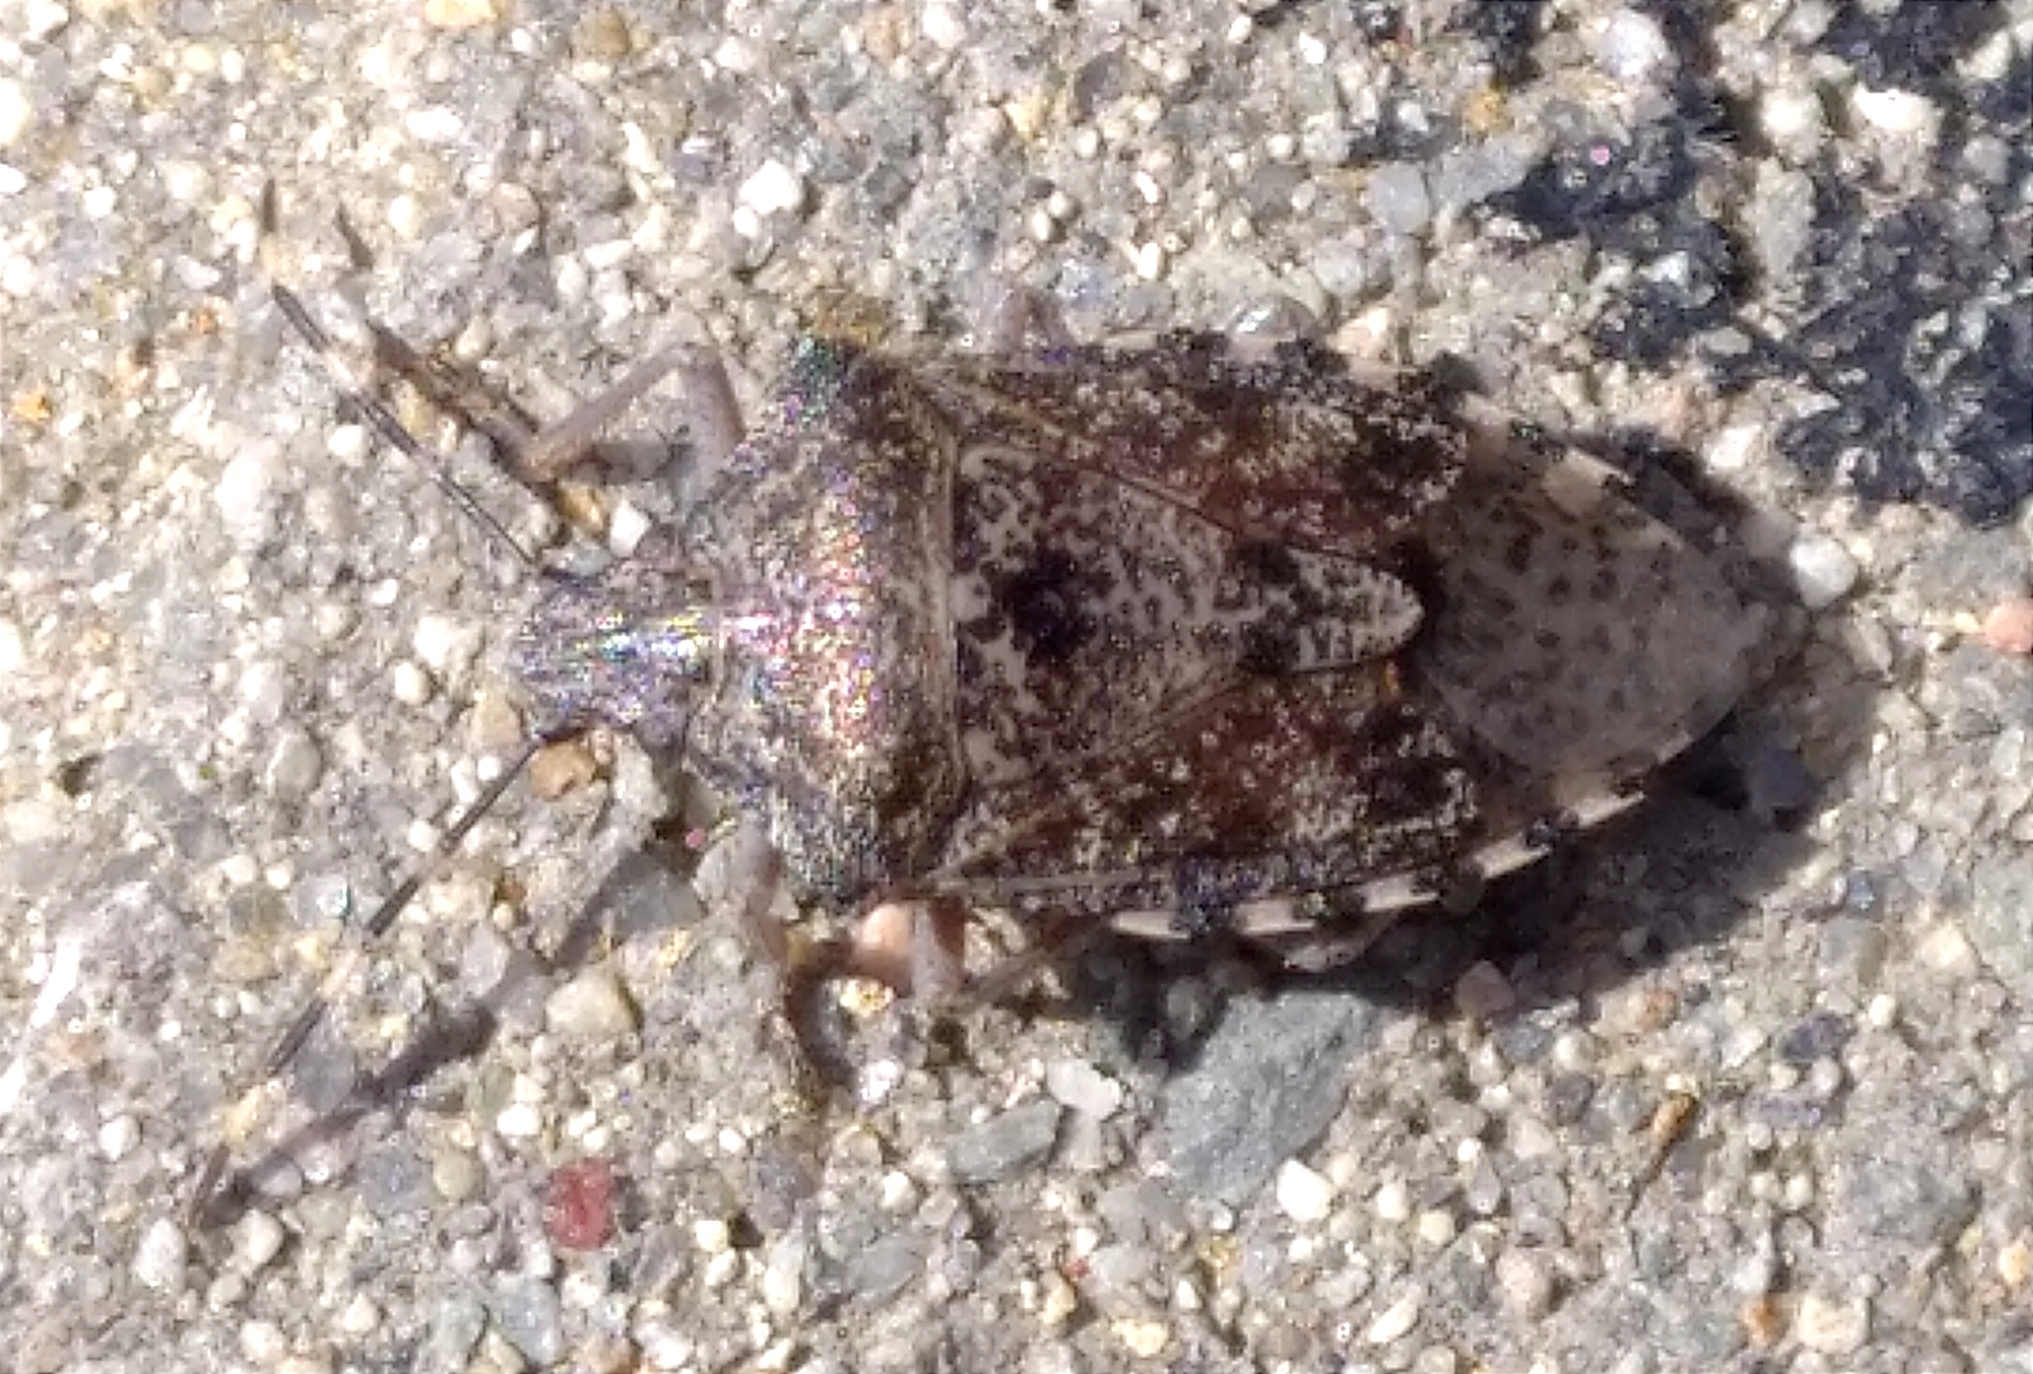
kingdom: Animalia
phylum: Arthropoda
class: Insecta
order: Hemiptera
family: Pentatomidae
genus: Rhaphigaster
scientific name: Rhaphigaster nebulosa
